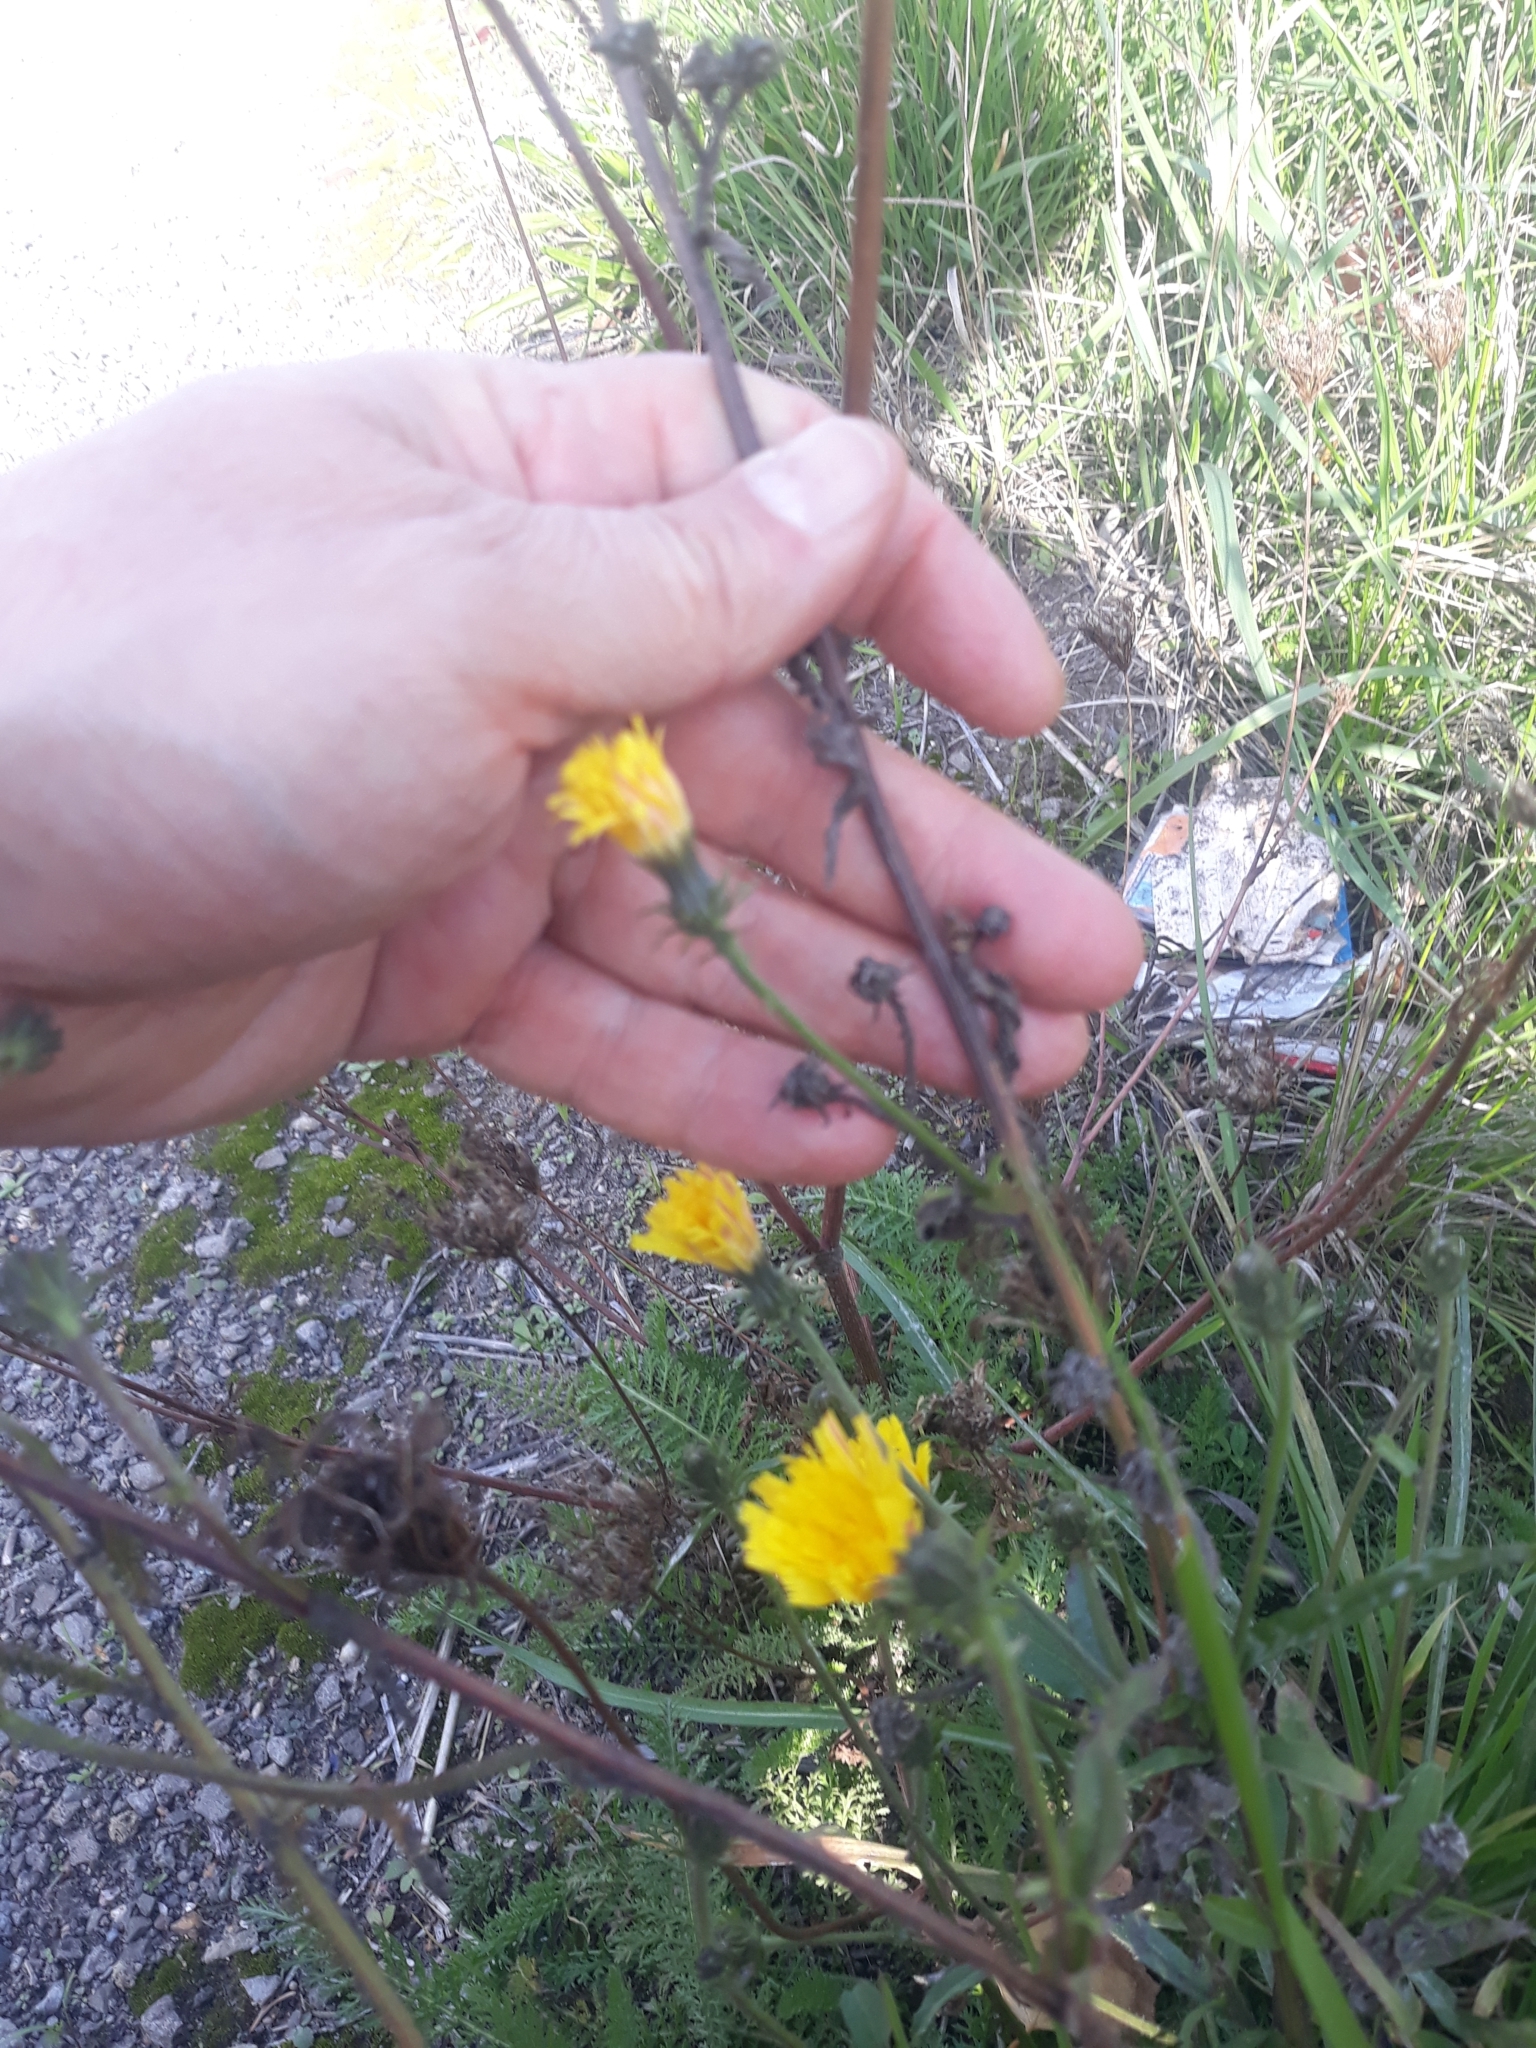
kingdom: Plantae
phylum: Tracheophyta
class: Magnoliopsida
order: Asterales
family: Asteraceae
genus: Picris
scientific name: Picris hieracioides
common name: Hawkweed oxtongue
